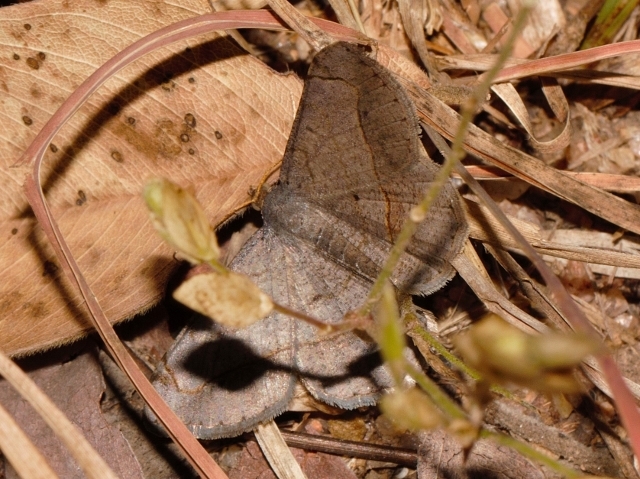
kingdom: Animalia
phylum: Arthropoda
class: Insecta
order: Lepidoptera
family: Geometridae
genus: Chiasmia
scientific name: Chiasmia kilimanjarensis
